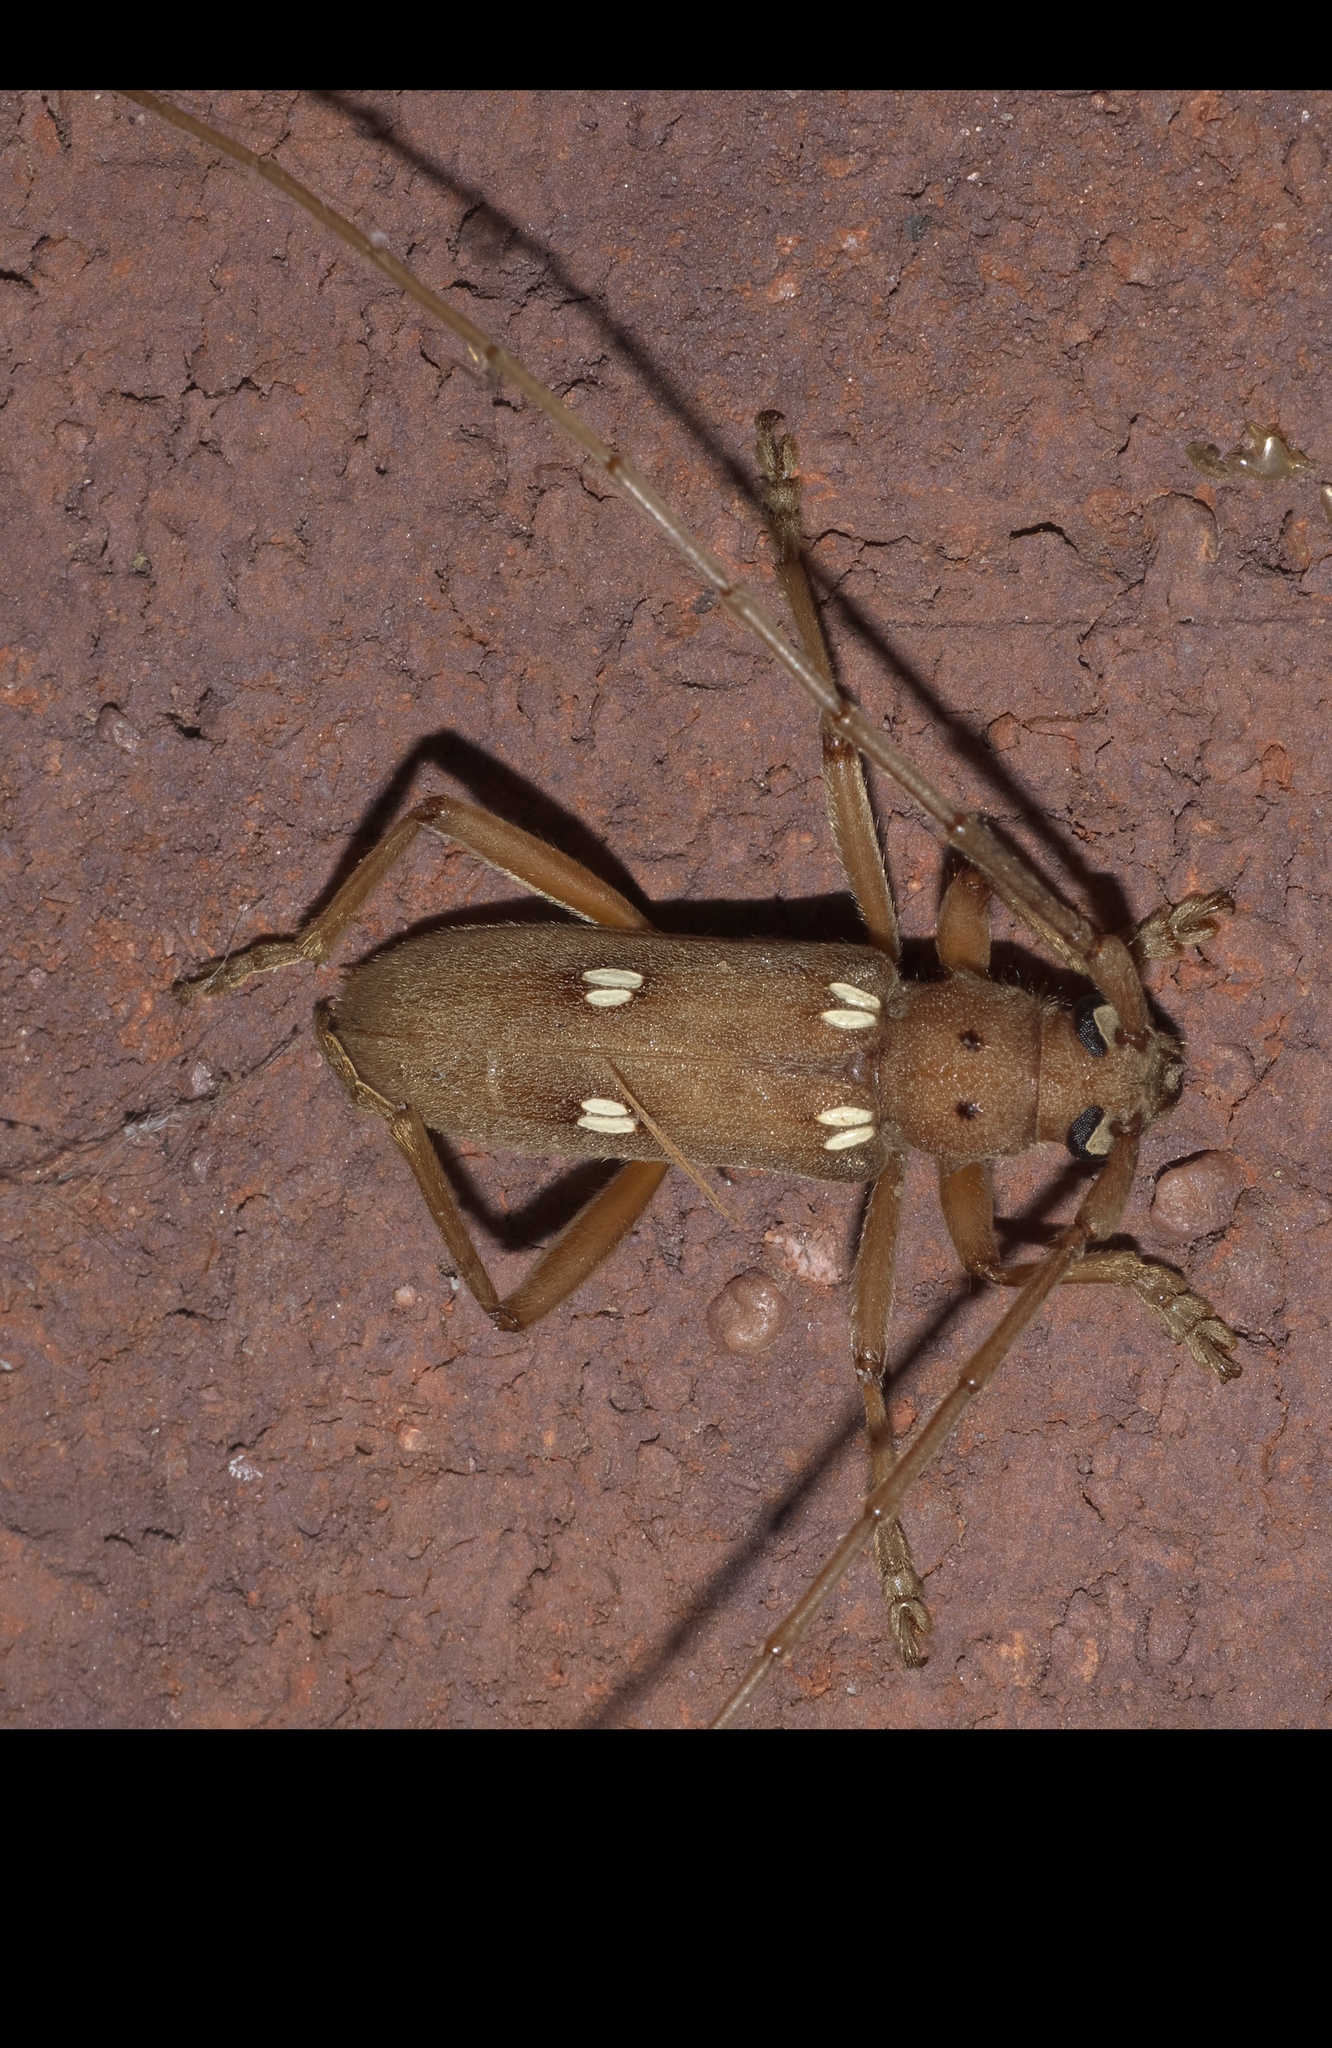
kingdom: Animalia
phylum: Arthropoda
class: Insecta
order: Coleoptera
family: Cerambycidae
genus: Eburia
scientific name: Eburia quadrigeminata
